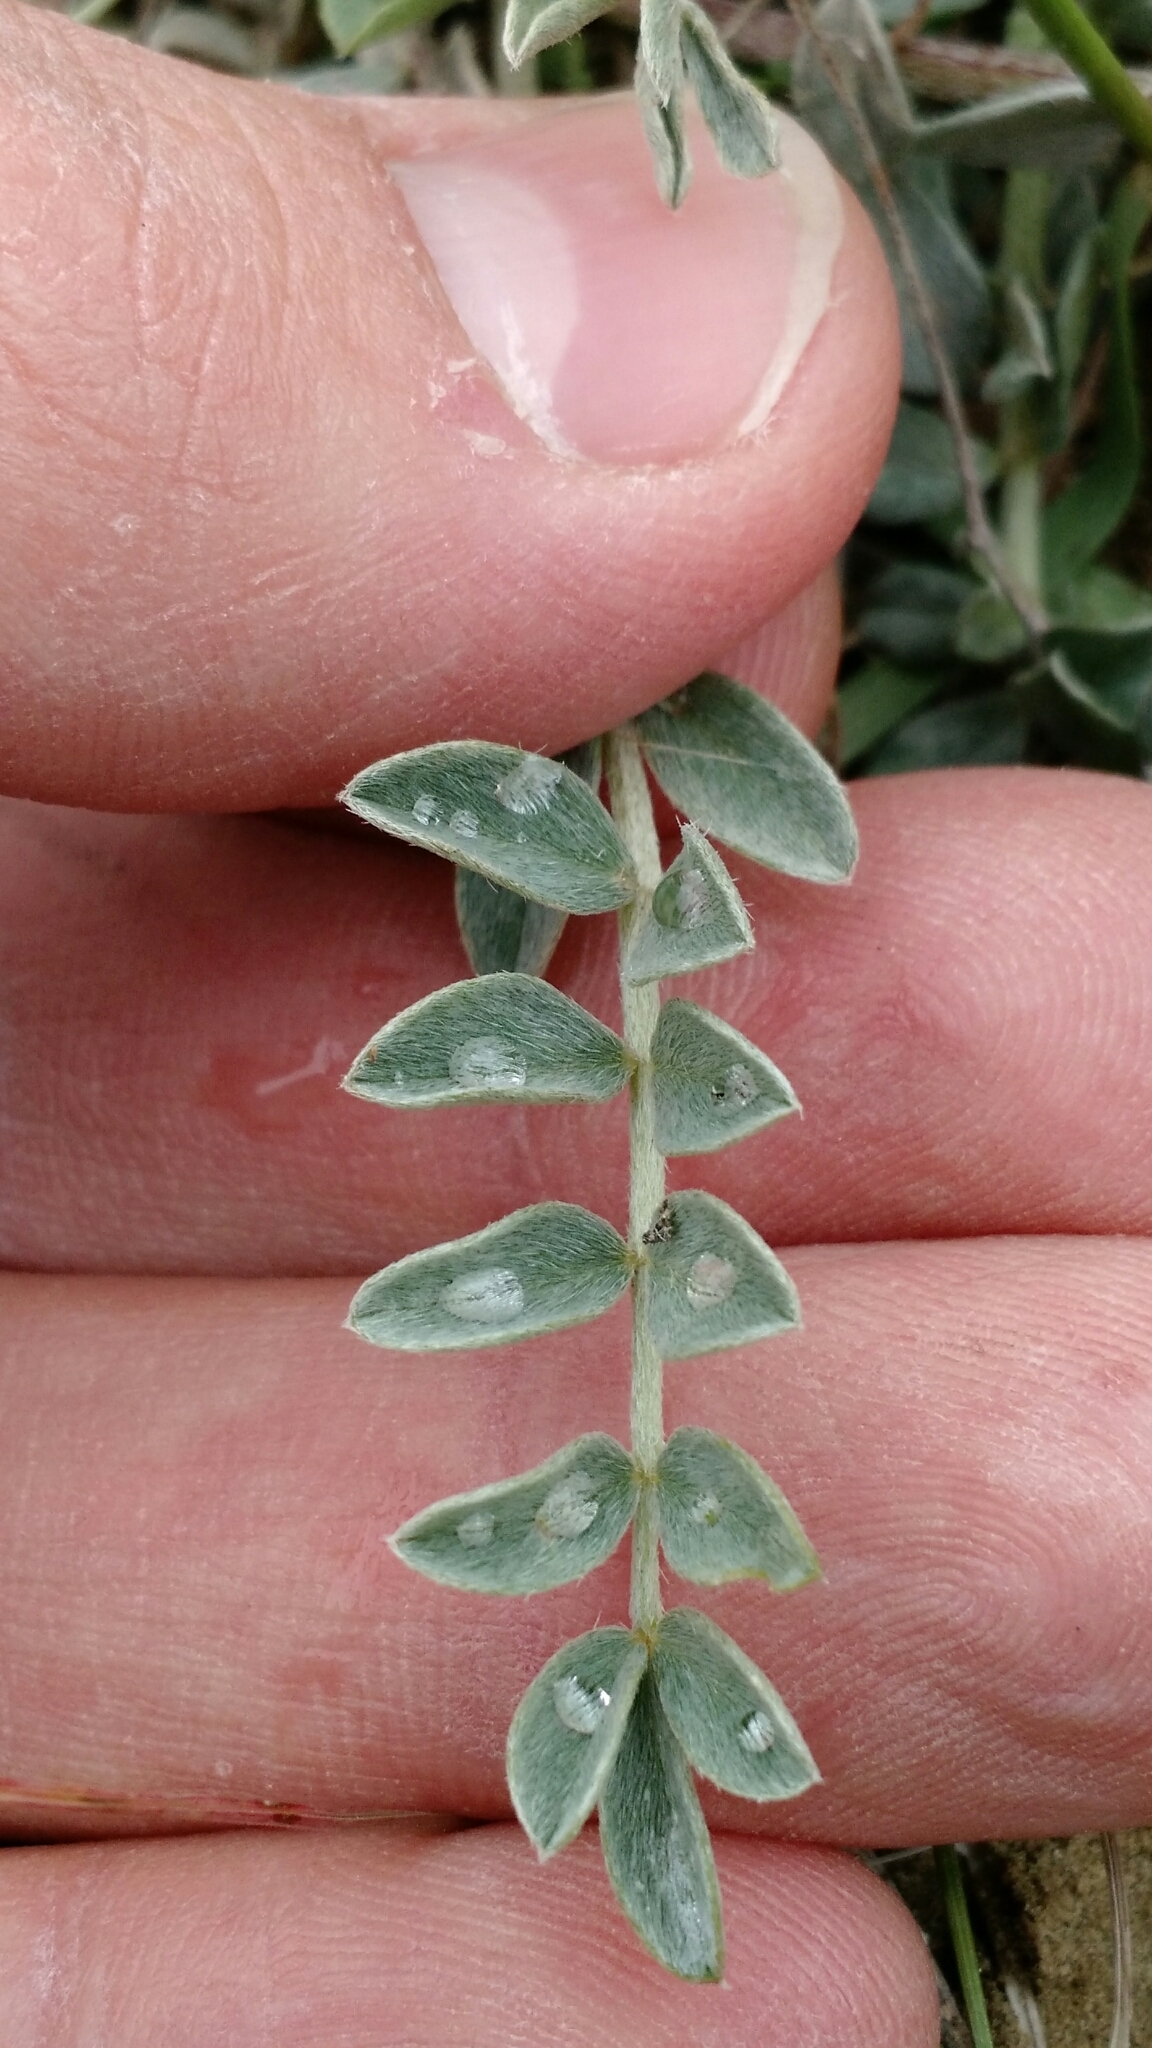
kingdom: Plantae
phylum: Tracheophyta
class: Magnoliopsida
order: Fabales
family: Fabaceae
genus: Astragalus
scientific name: Astragalus missouriensis
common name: Missouri milk-vetch
